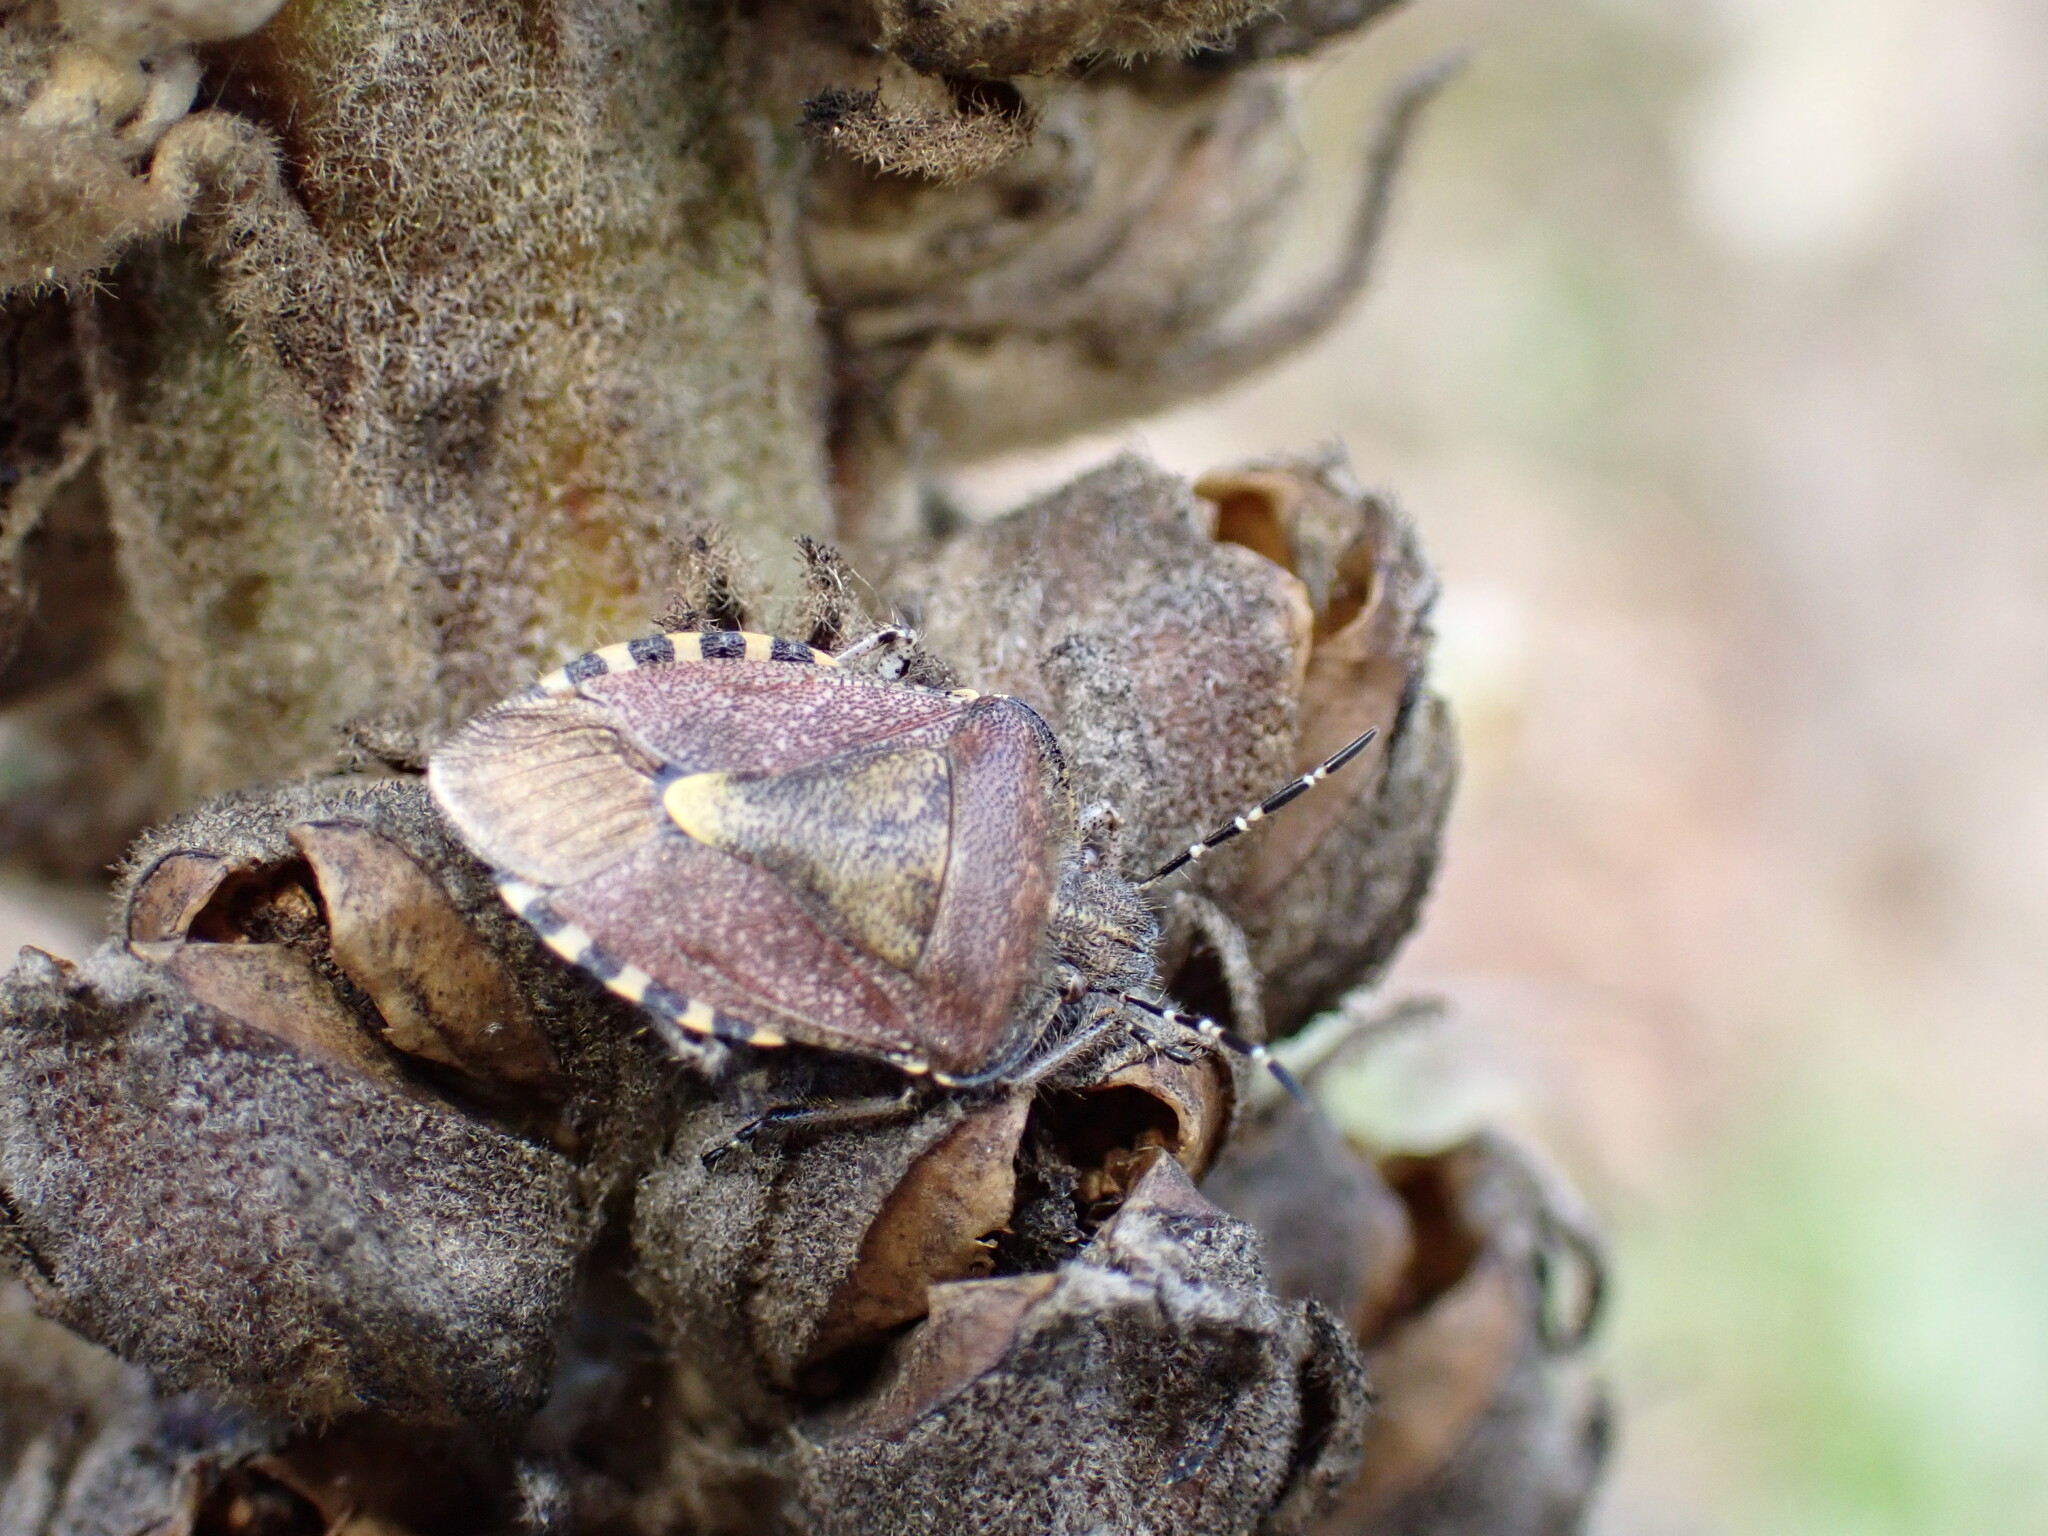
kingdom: Animalia
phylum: Arthropoda
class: Insecta
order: Hemiptera
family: Pentatomidae
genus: Dolycoris
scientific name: Dolycoris baccarum
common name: Sloe bug
